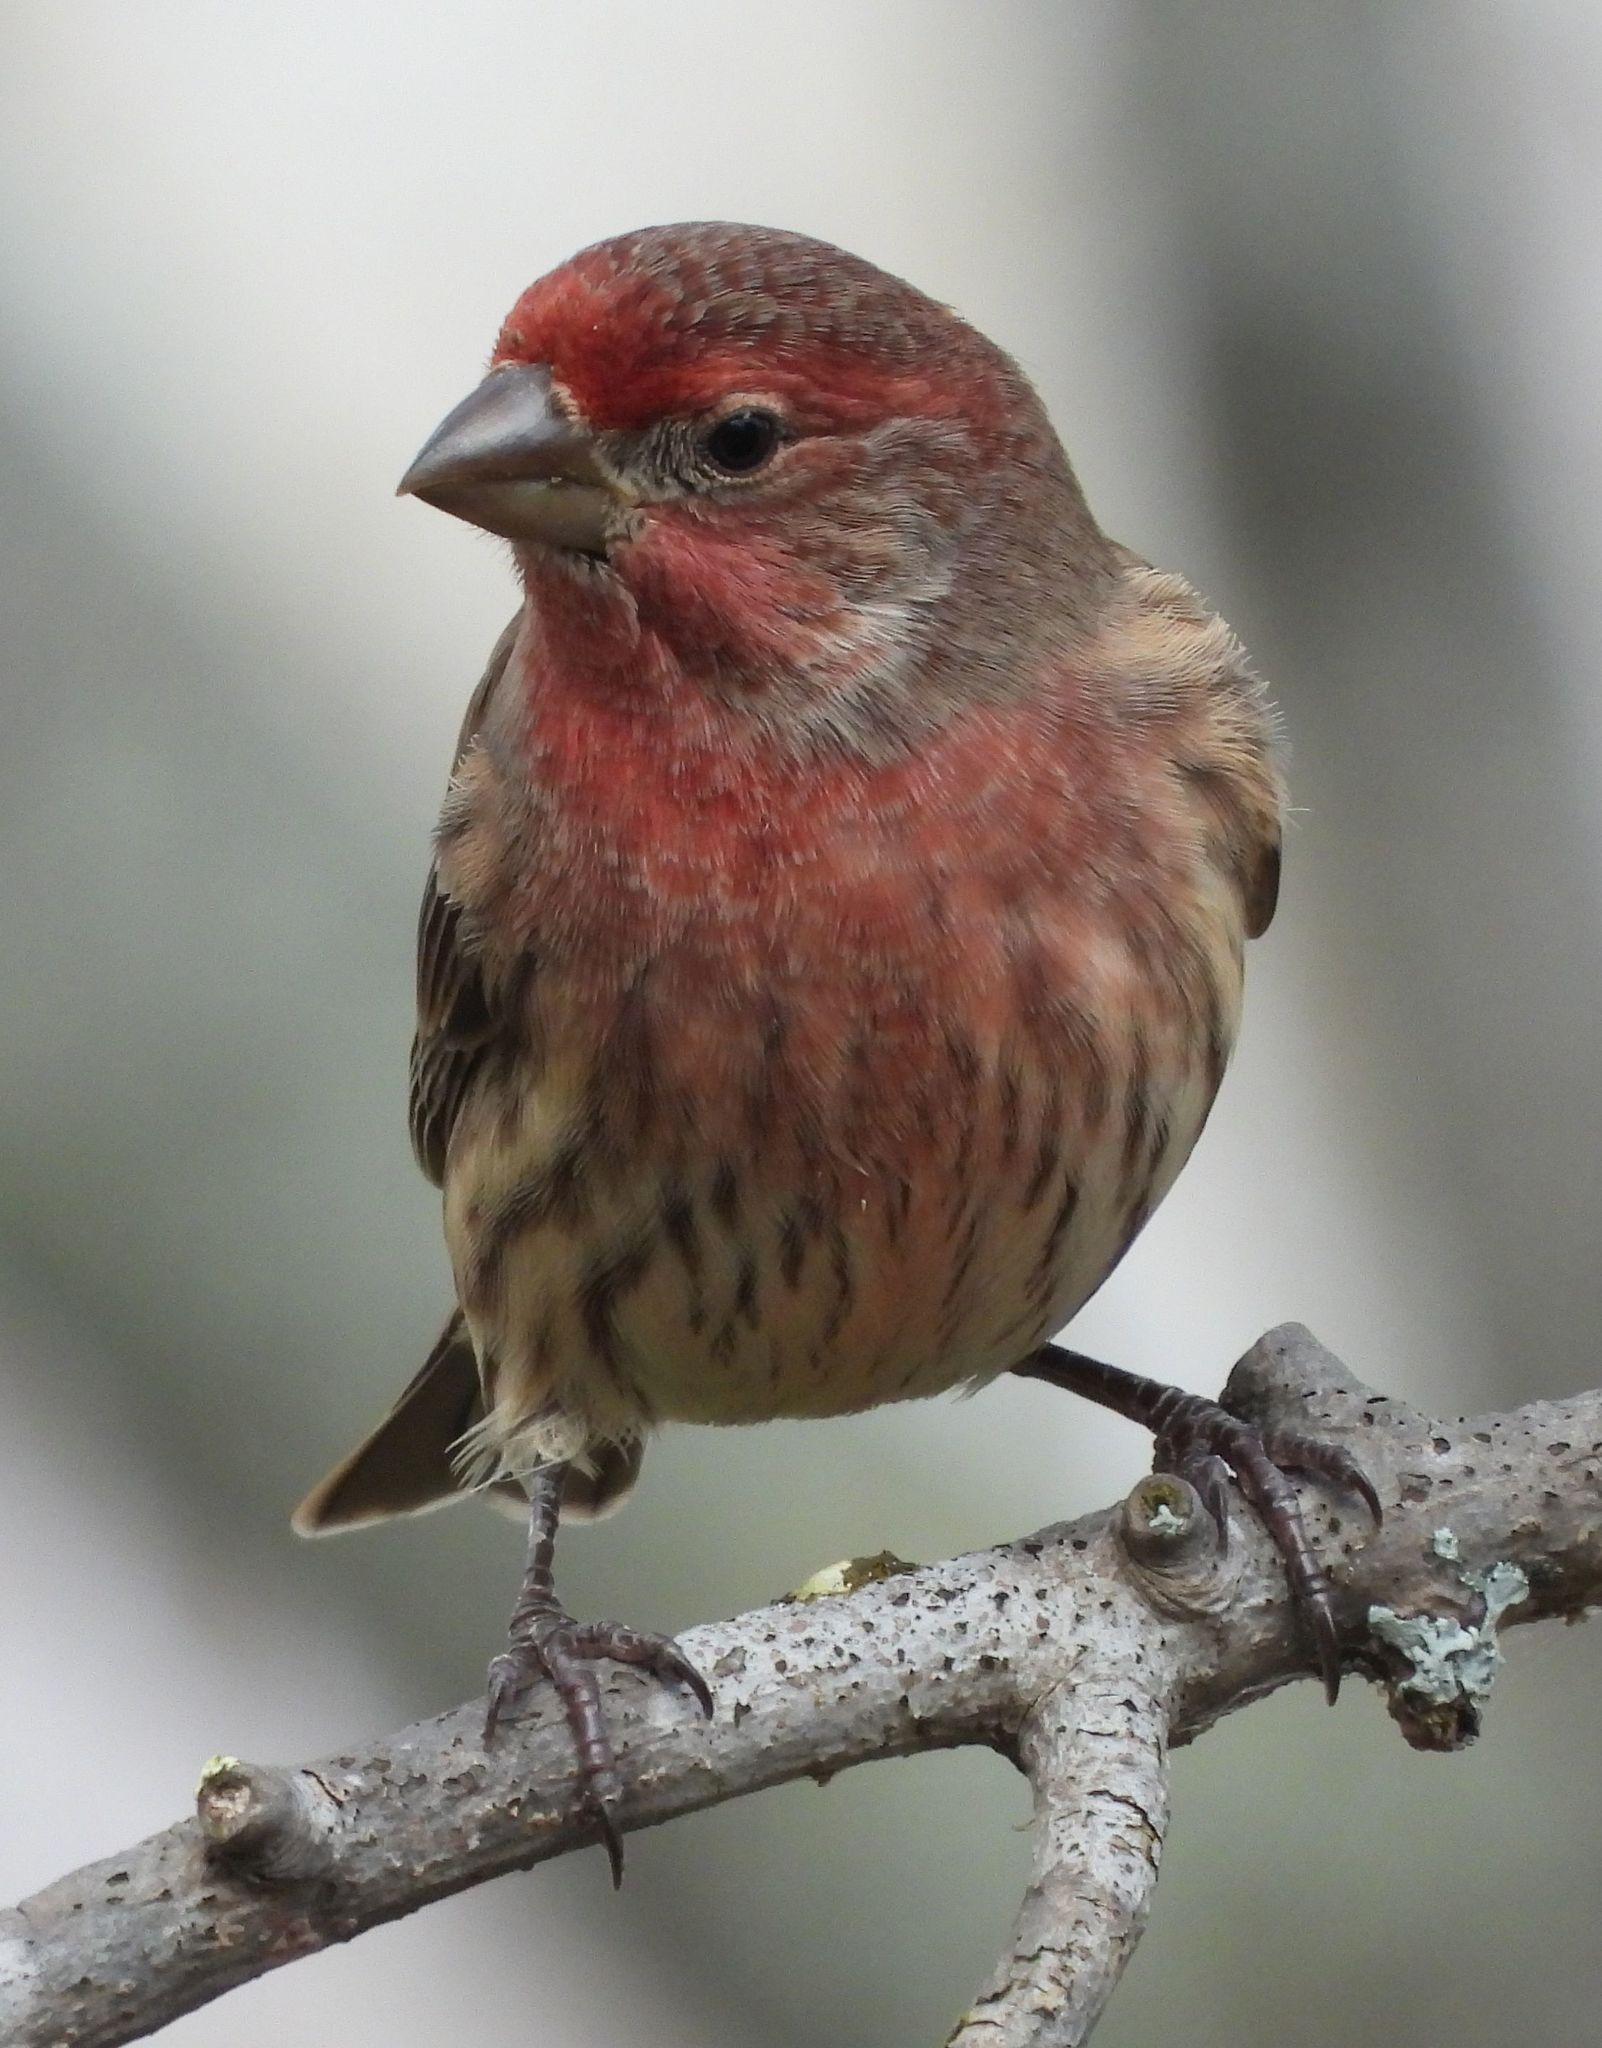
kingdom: Animalia
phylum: Chordata
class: Aves
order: Passeriformes
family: Fringillidae
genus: Haemorhous
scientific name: Haemorhous mexicanus
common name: House finch
